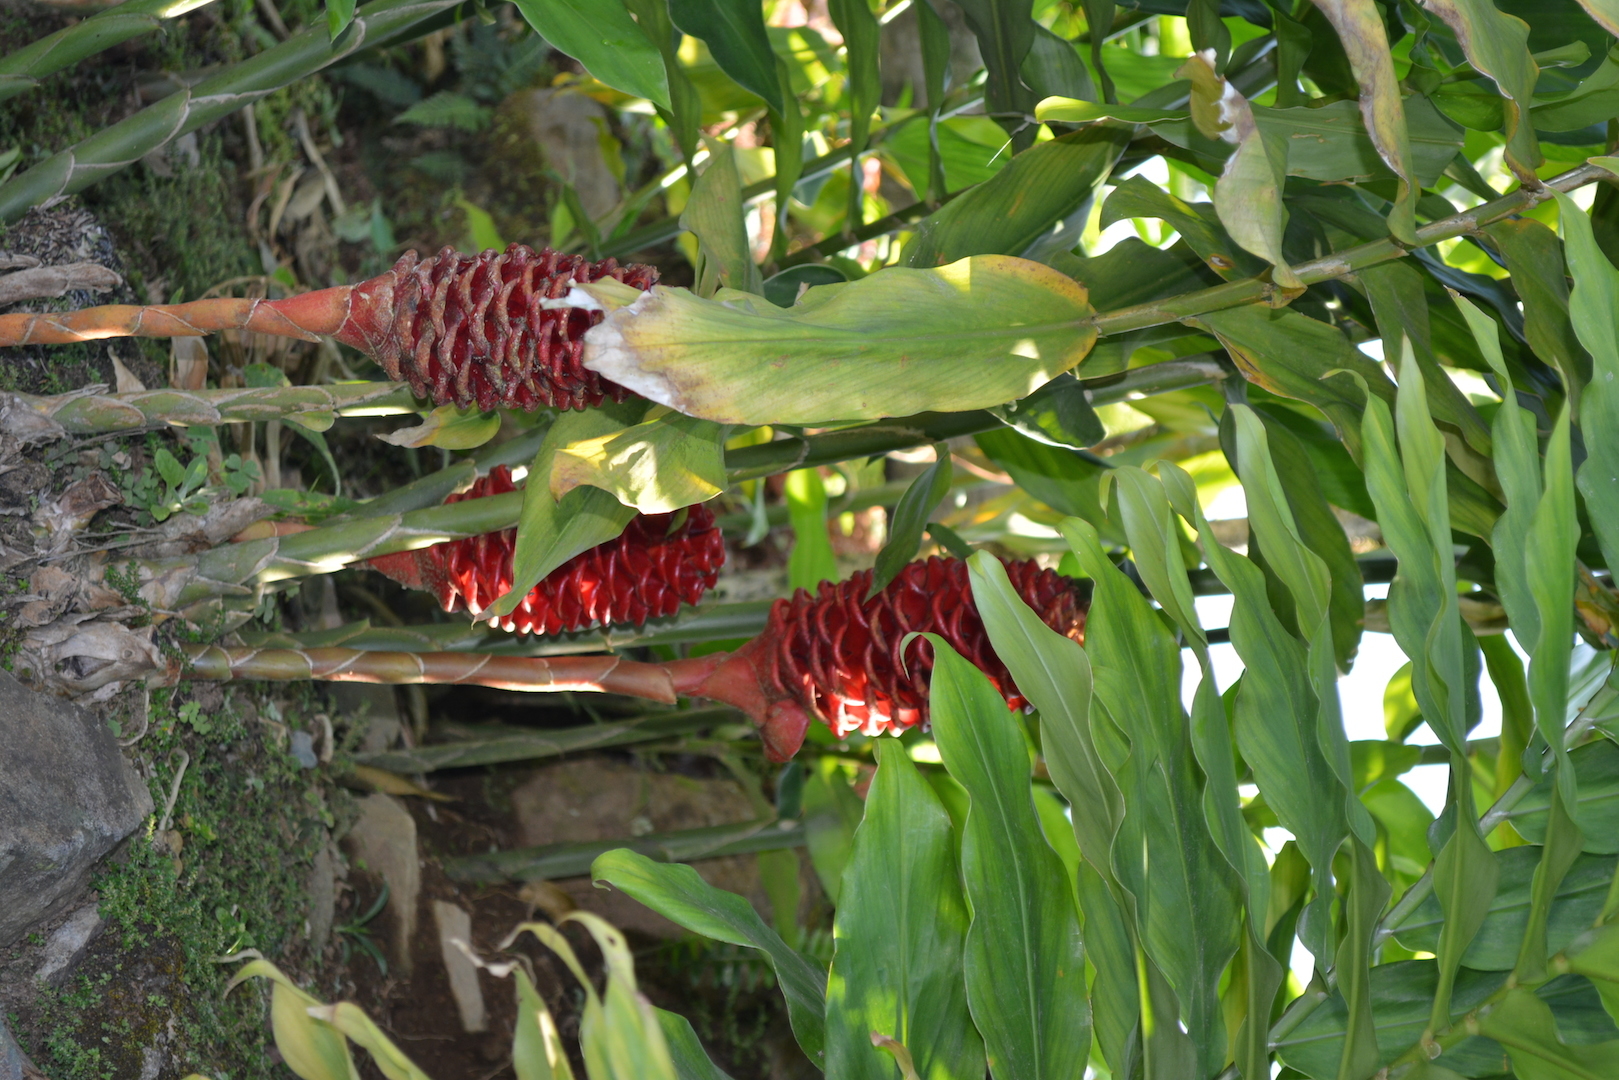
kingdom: Plantae
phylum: Tracheophyta
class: Liliopsida
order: Zingiberales
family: Zingiberaceae
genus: Zingiber
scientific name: Zingiber spectabile
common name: Beehive ginger
